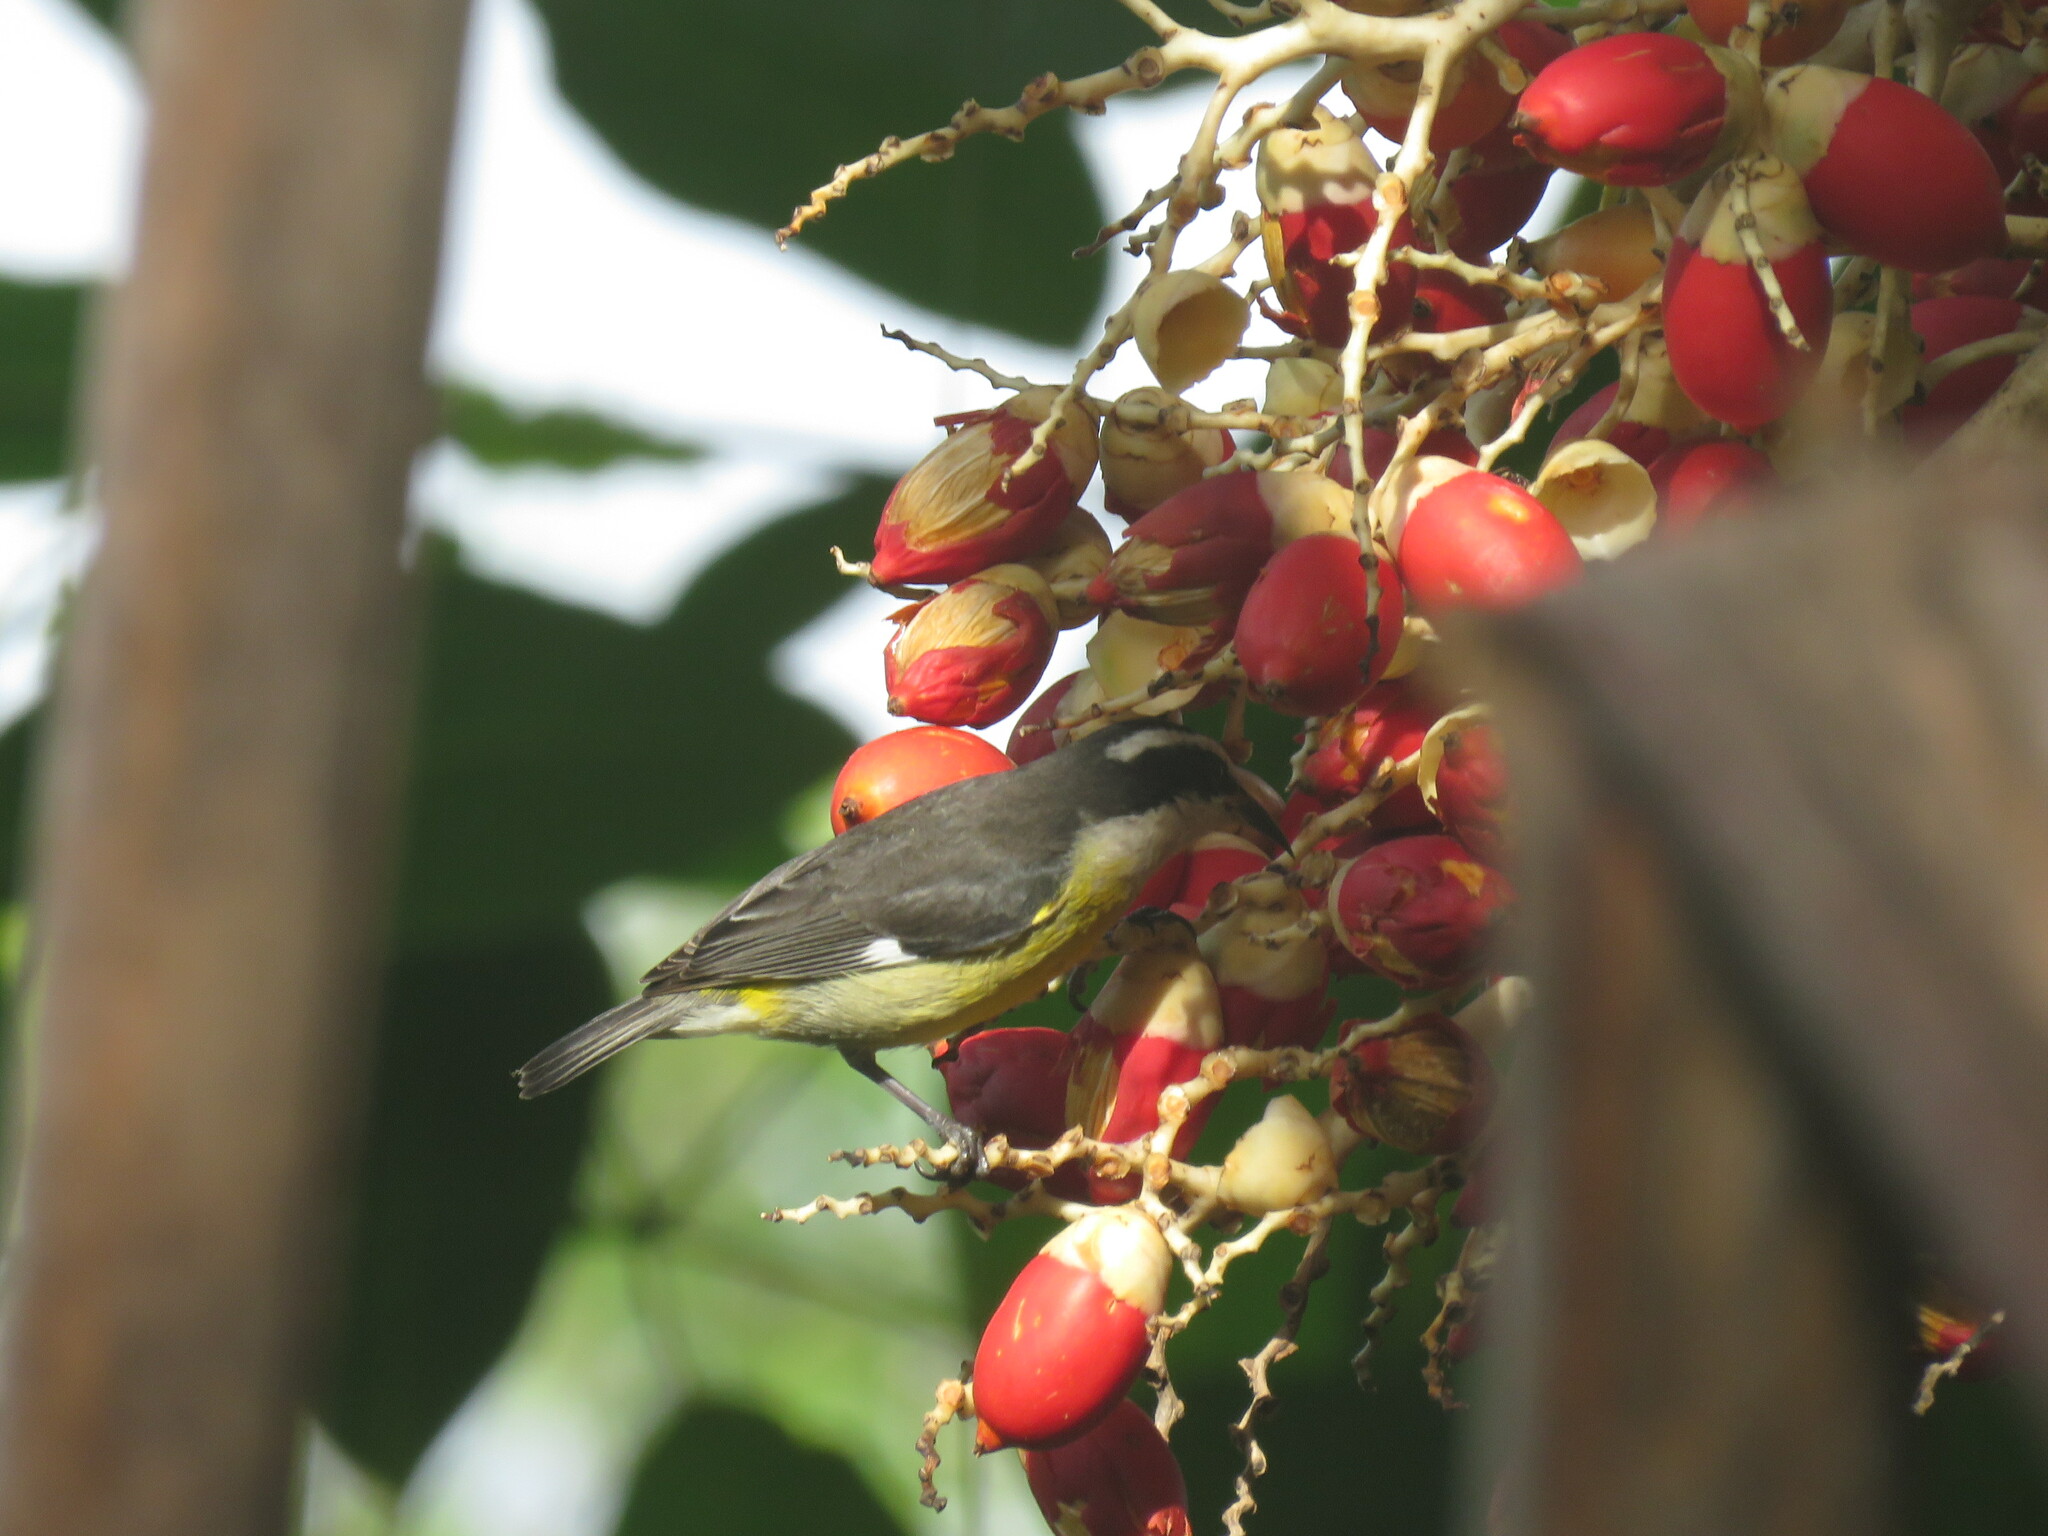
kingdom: Animalia
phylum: Chordata
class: Aves
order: Passeriformes
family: Thraupidae
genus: Coereba
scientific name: Coereba flaveola
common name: Bananaquit
